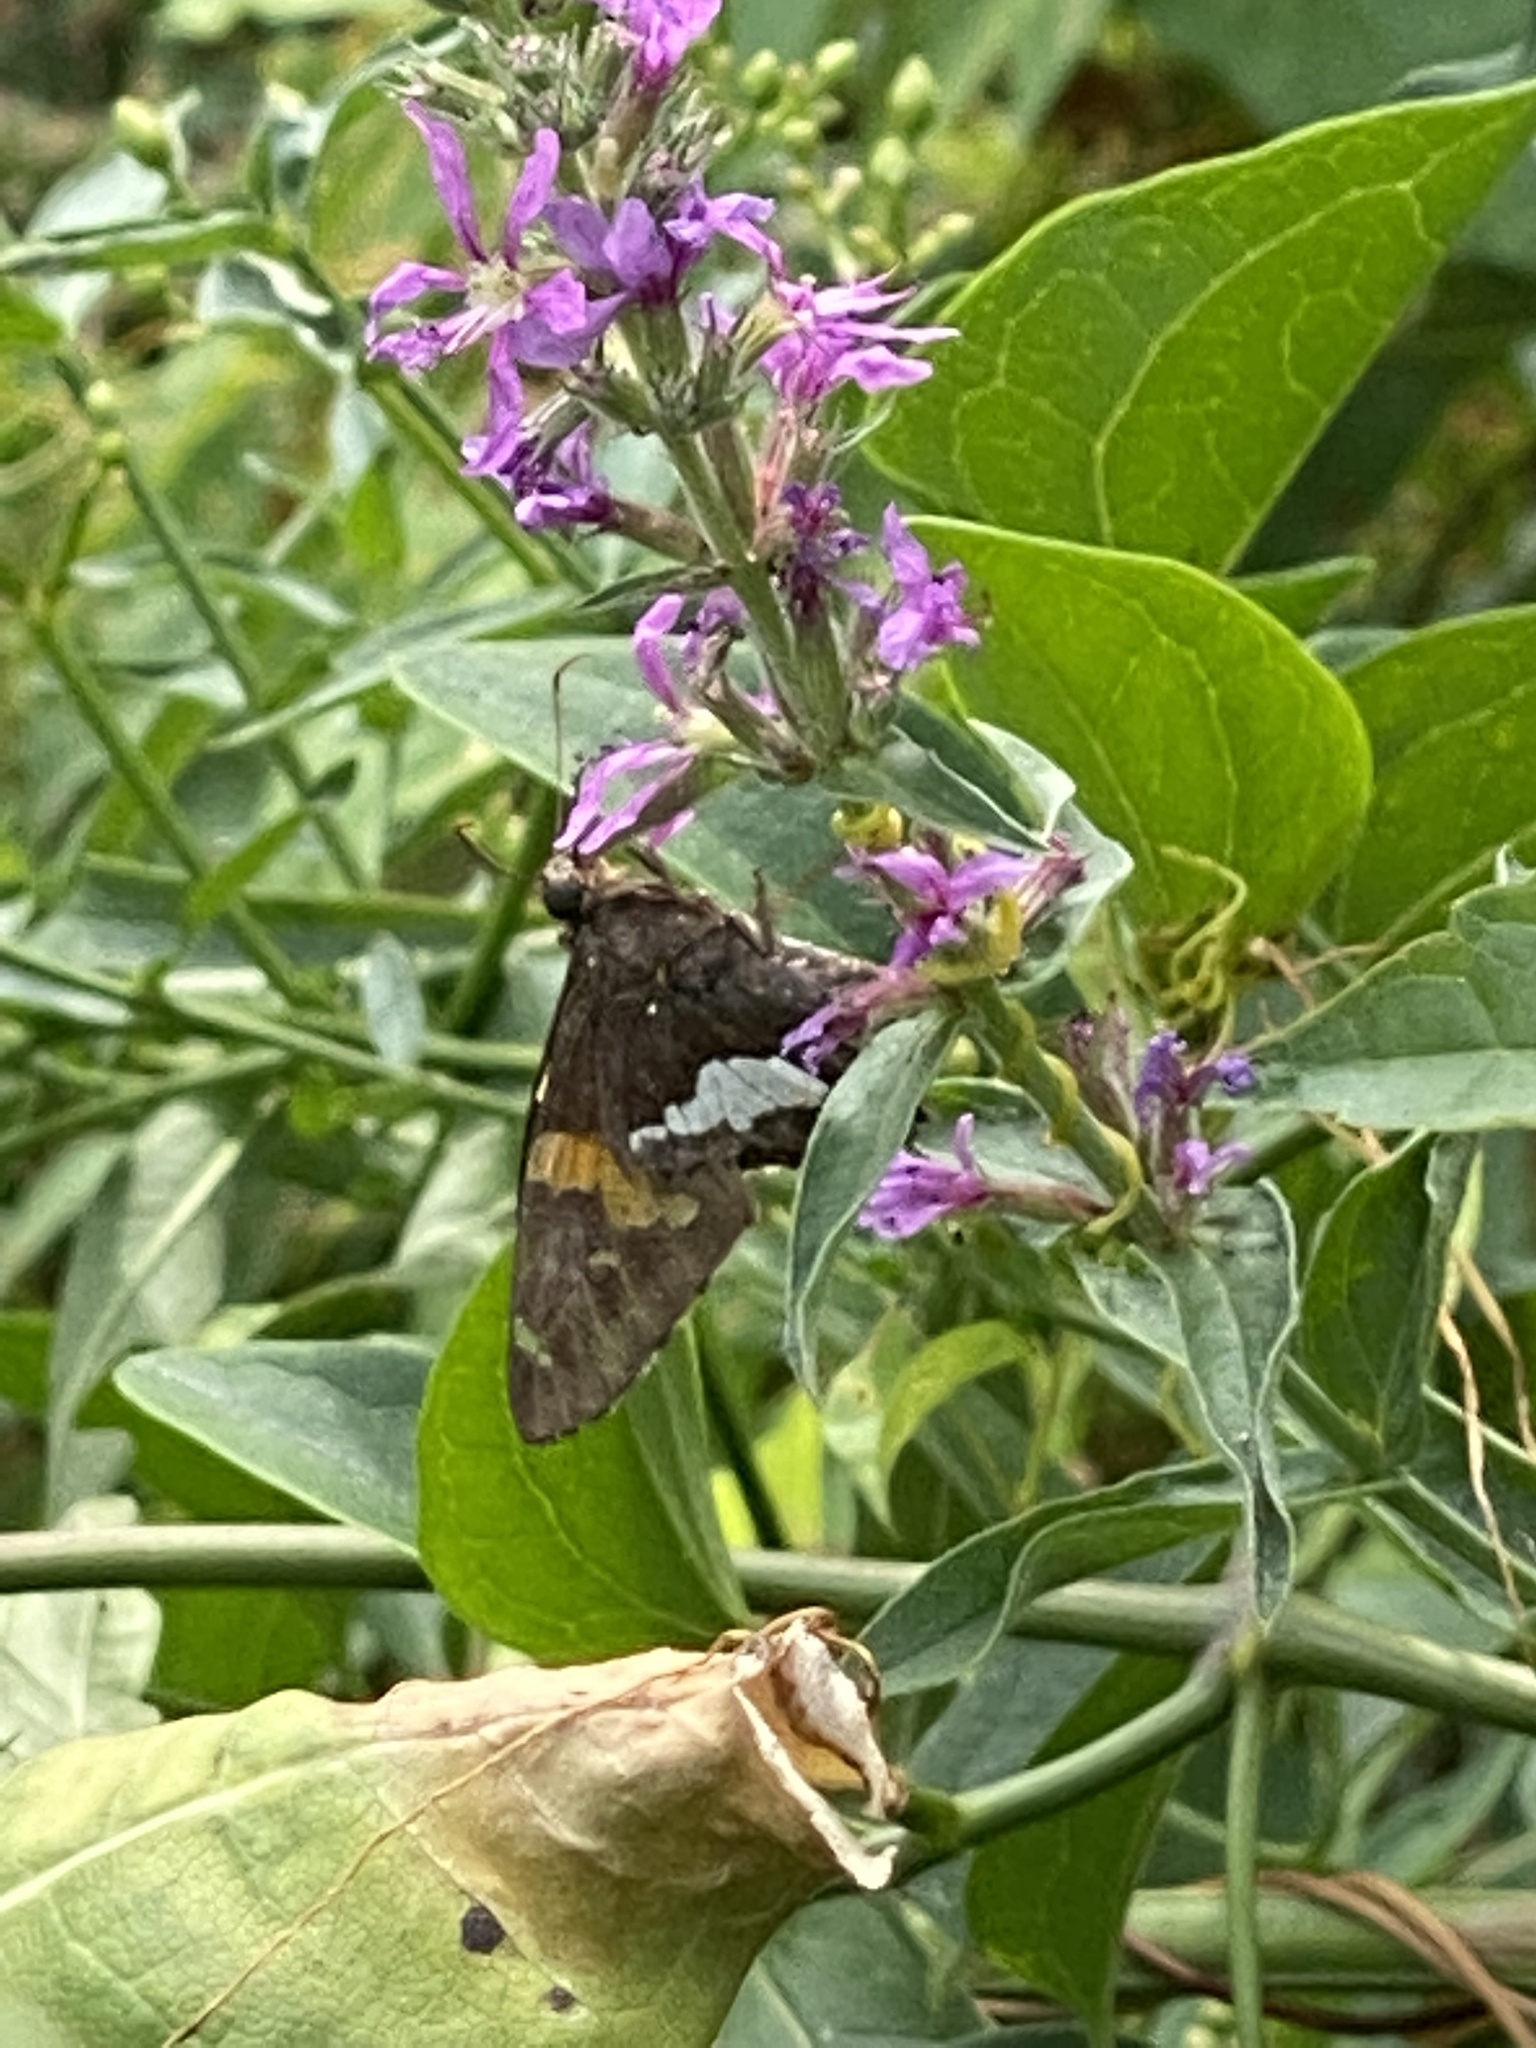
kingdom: Animalia
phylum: Arthropoda
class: Insecta
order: Lepidoptera
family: Hesperiidae
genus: Epargyreus
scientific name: Epargyreus clarus
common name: Silver-spotted skipper
